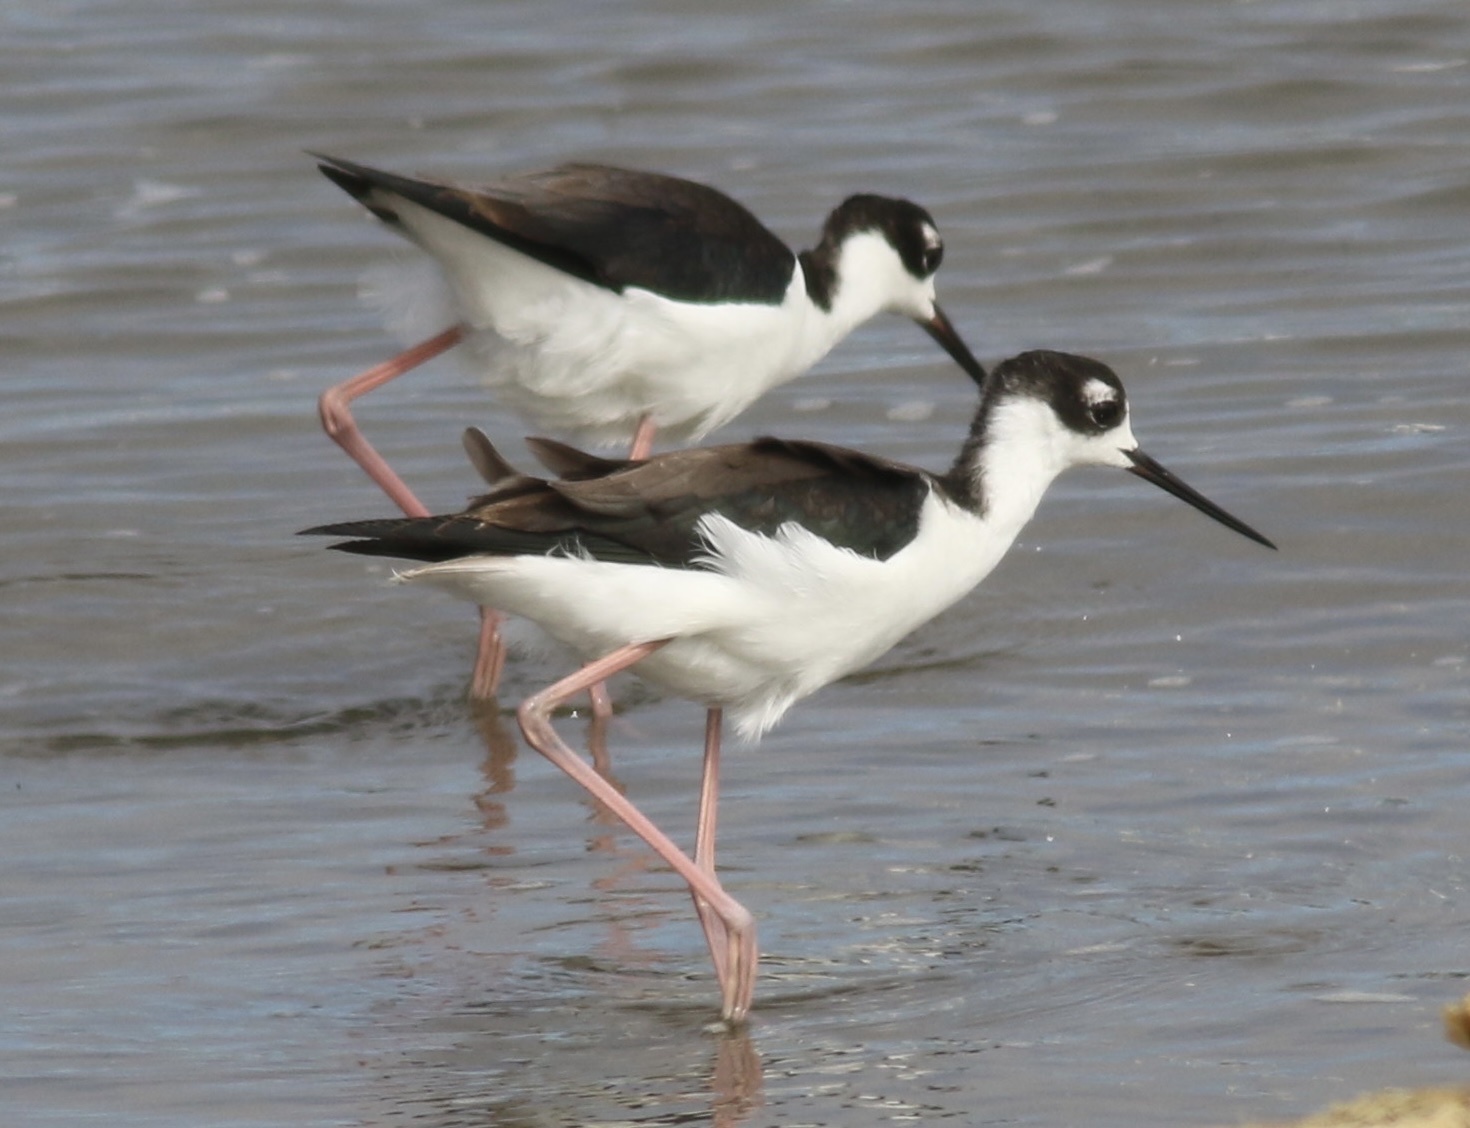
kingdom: Animalia
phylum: Chordata
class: Aves
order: Charadriiformes
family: Recurvirostridae
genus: Himantopus
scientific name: Himantopus mexicanus
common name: Black-necked stilt
